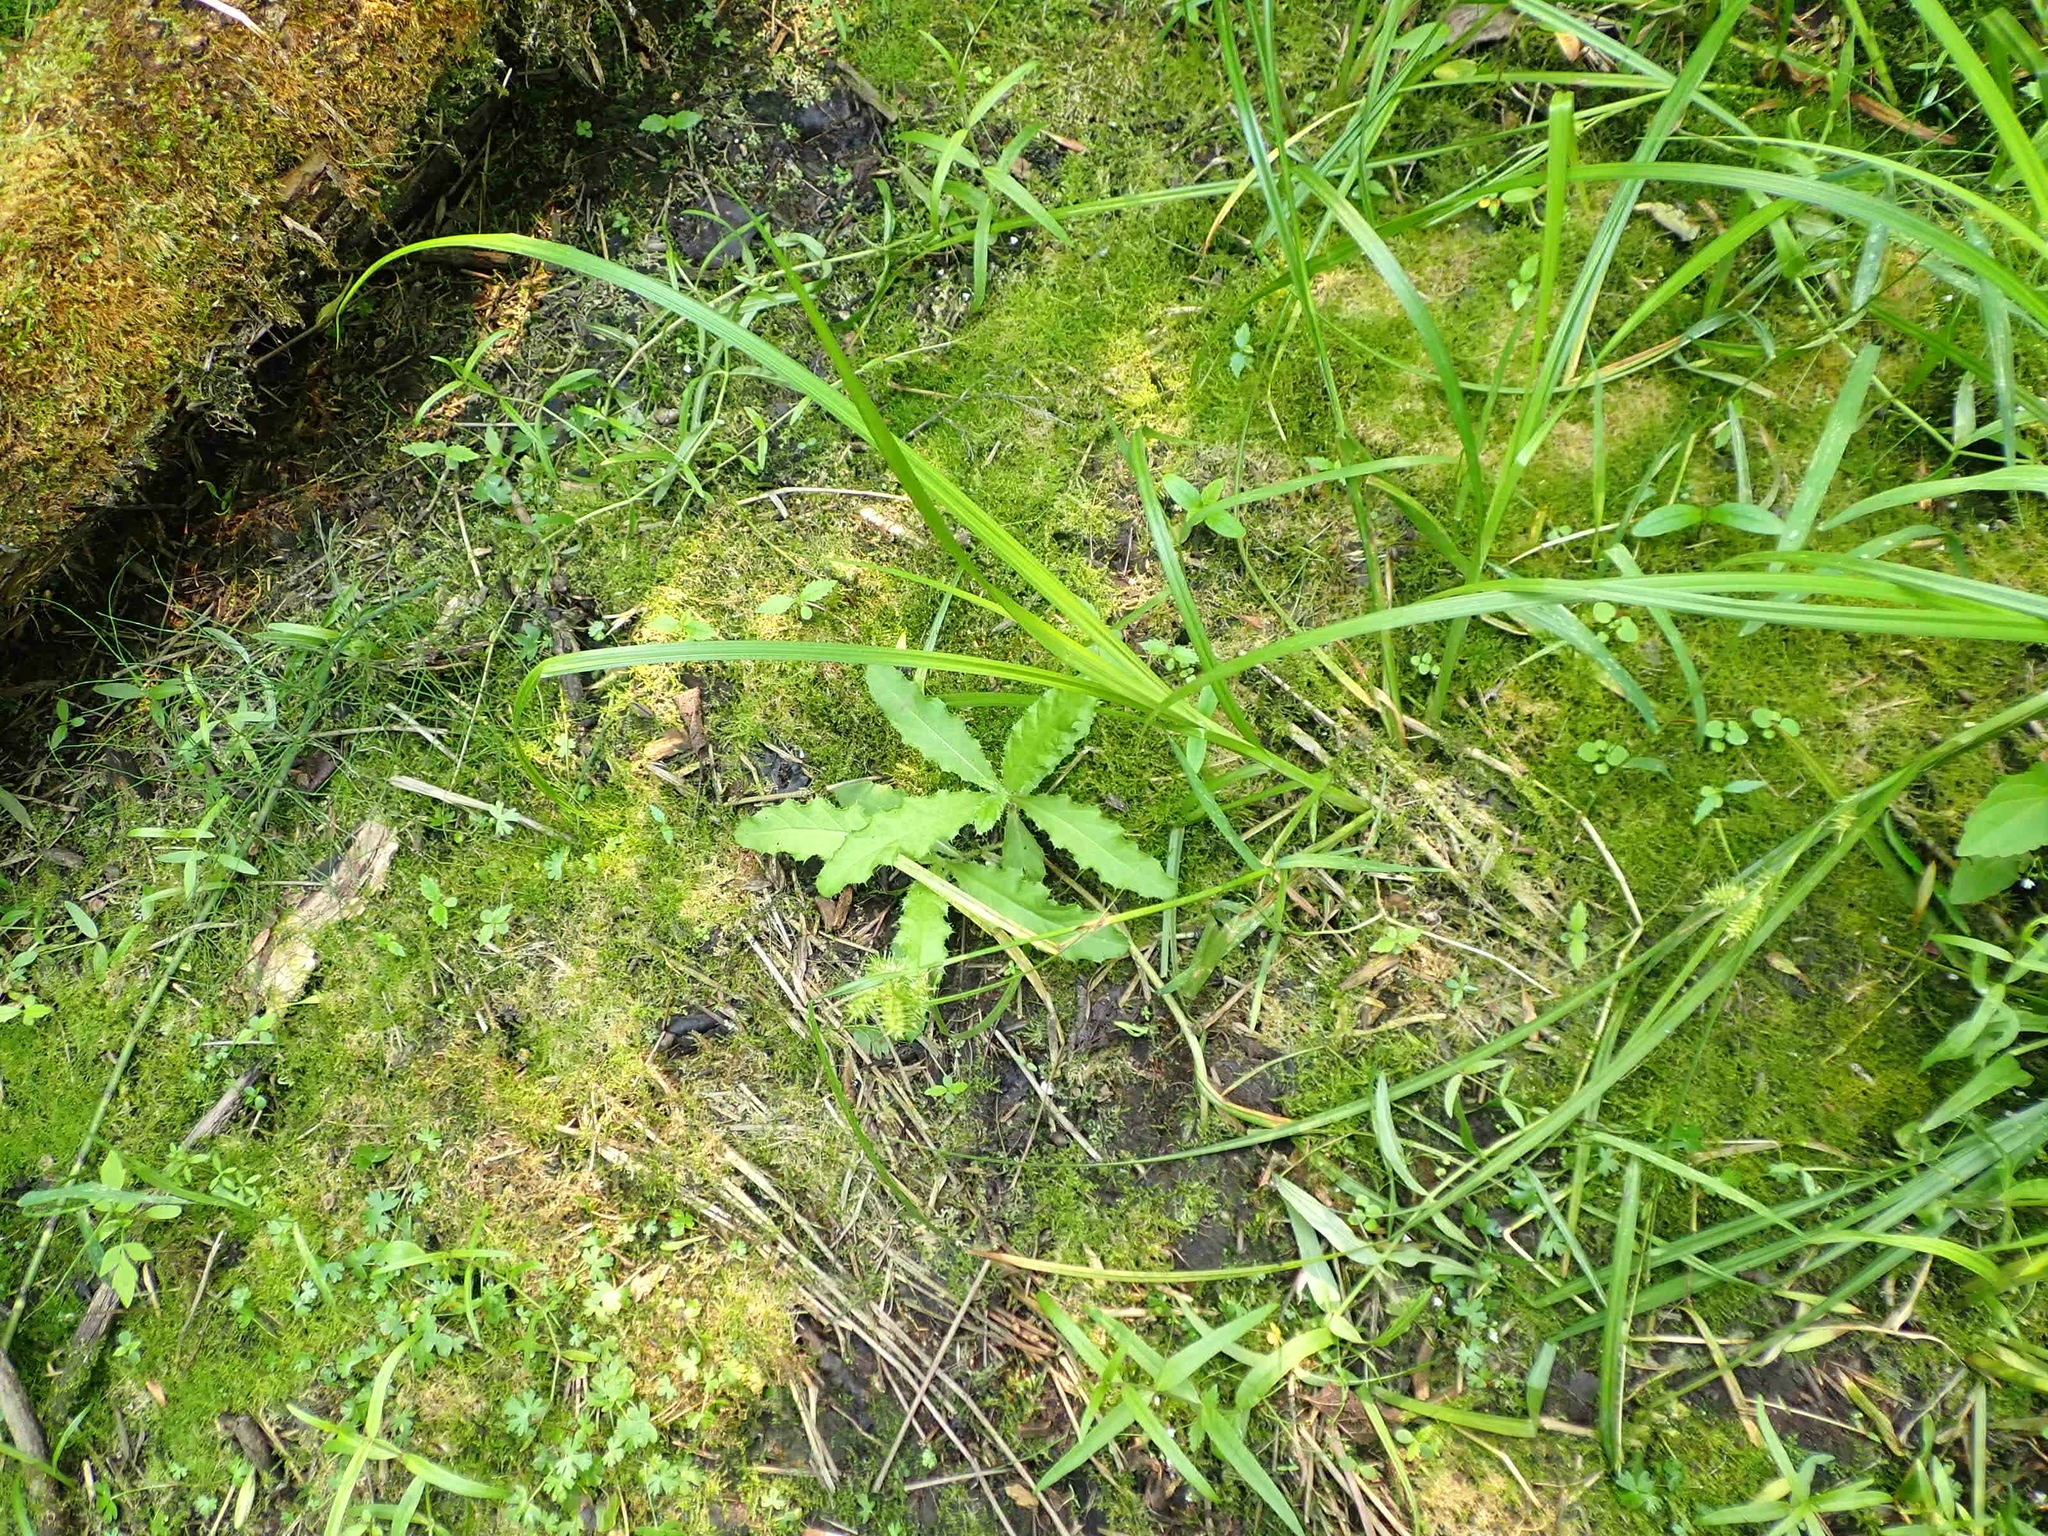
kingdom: Plantae
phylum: Tracheophyta
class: Liliopsida
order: Poales
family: Cyperaceae
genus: Carex
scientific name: Carex retrorsa
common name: Knot-sheath sedge
